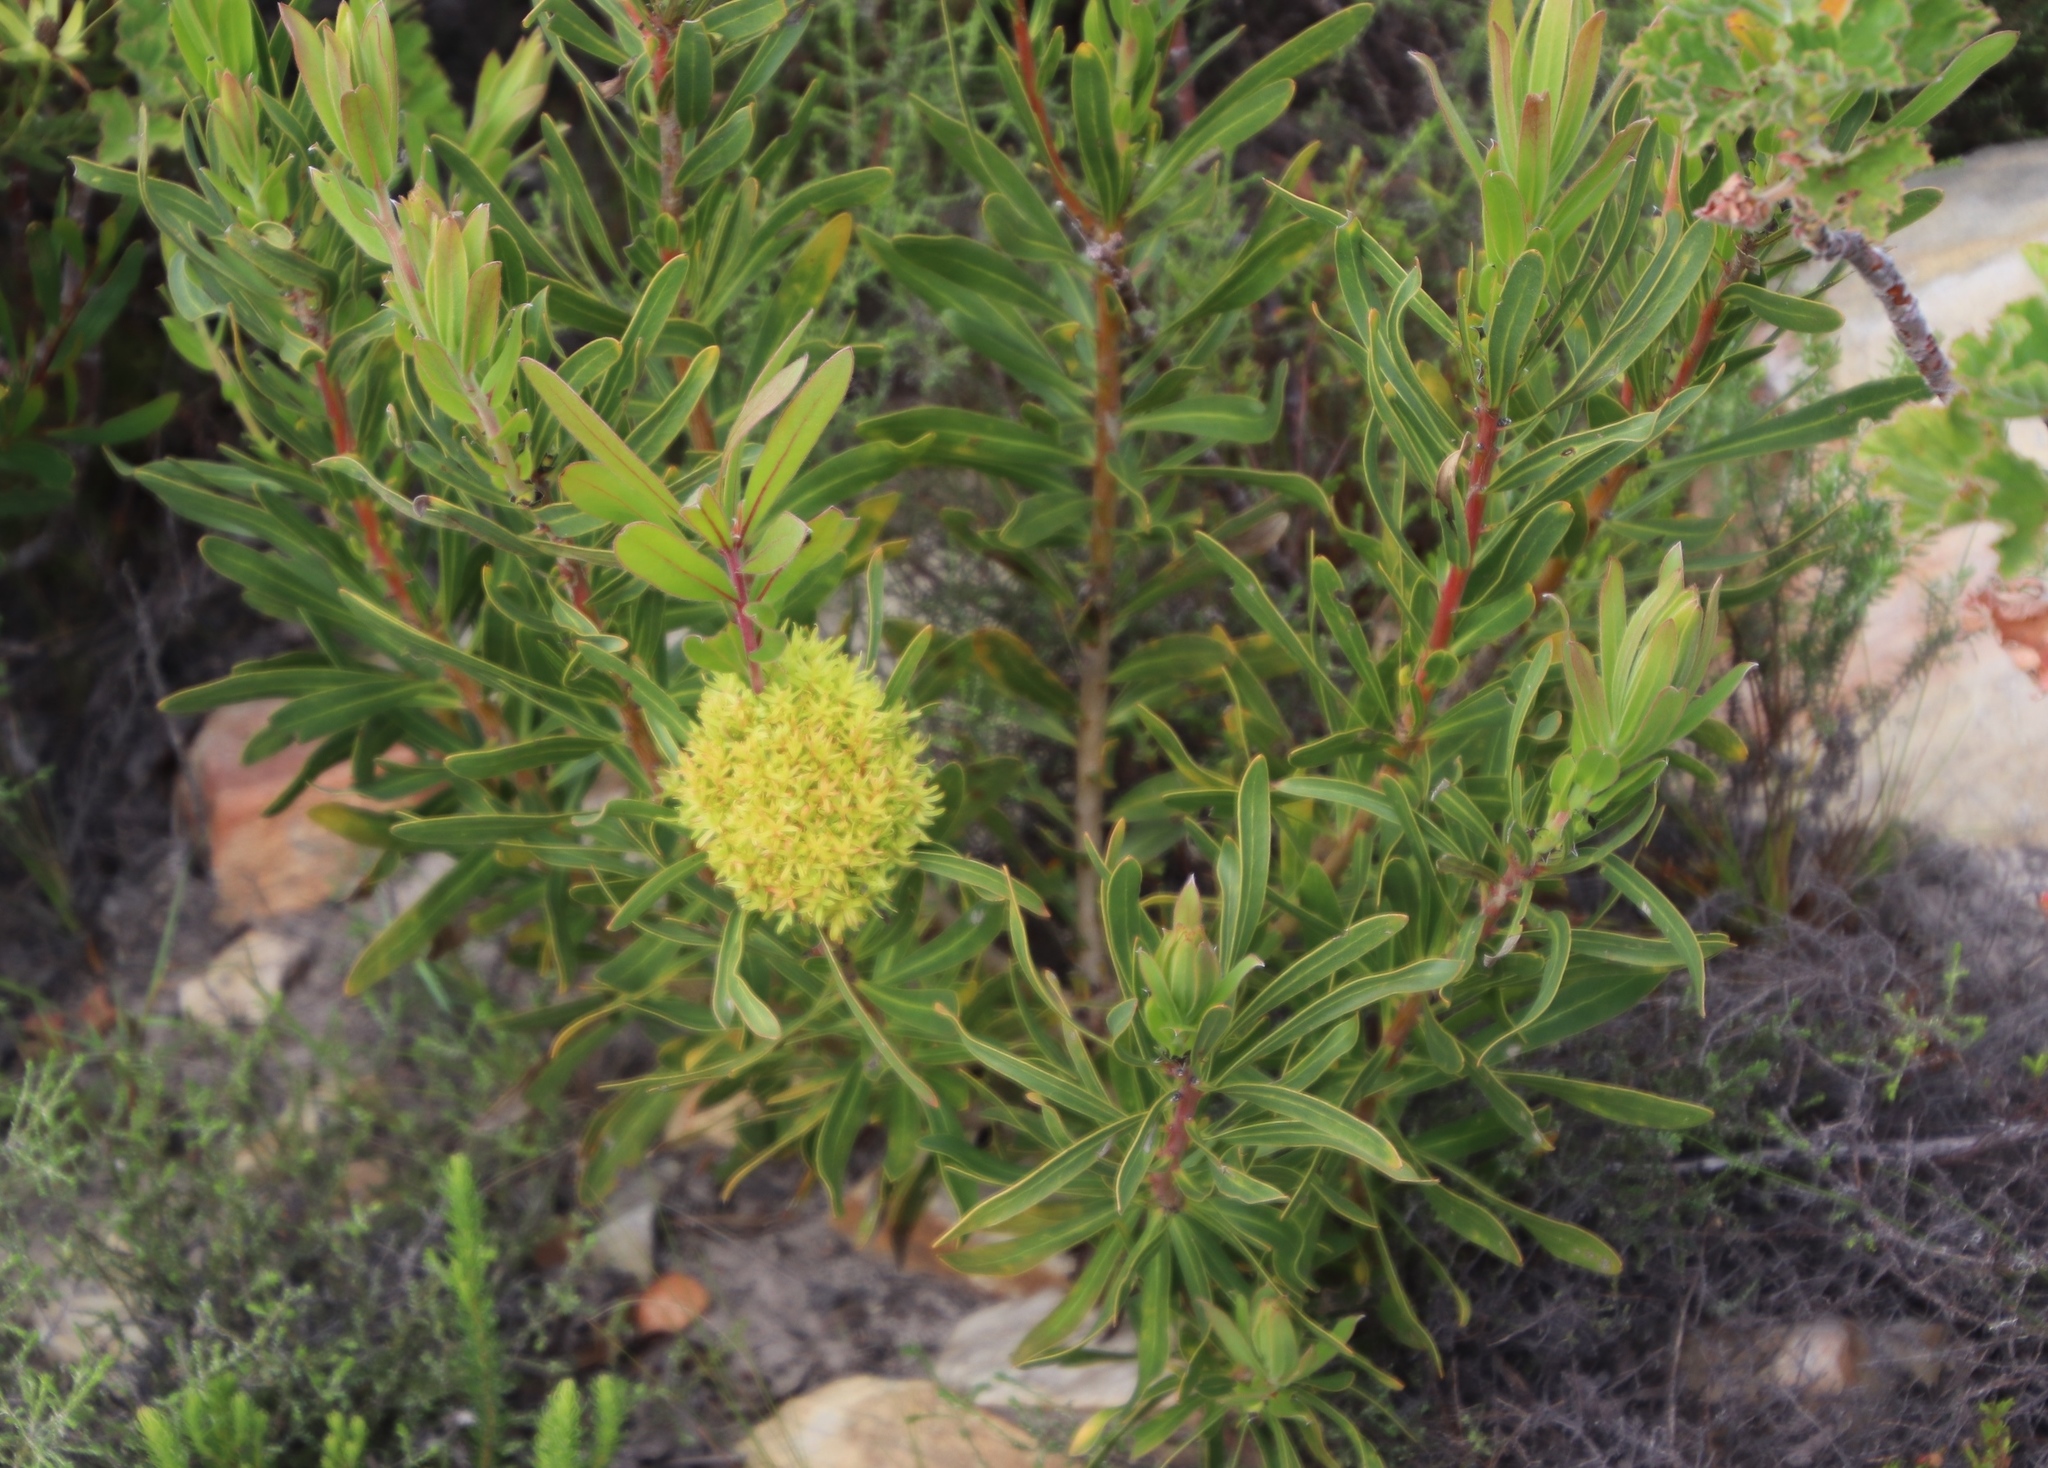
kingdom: Bacteria
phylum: Firmicutes
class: Bacilli
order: Acholeplasmatales
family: Acholeplasmataceae
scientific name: Acholeplasmataceae
